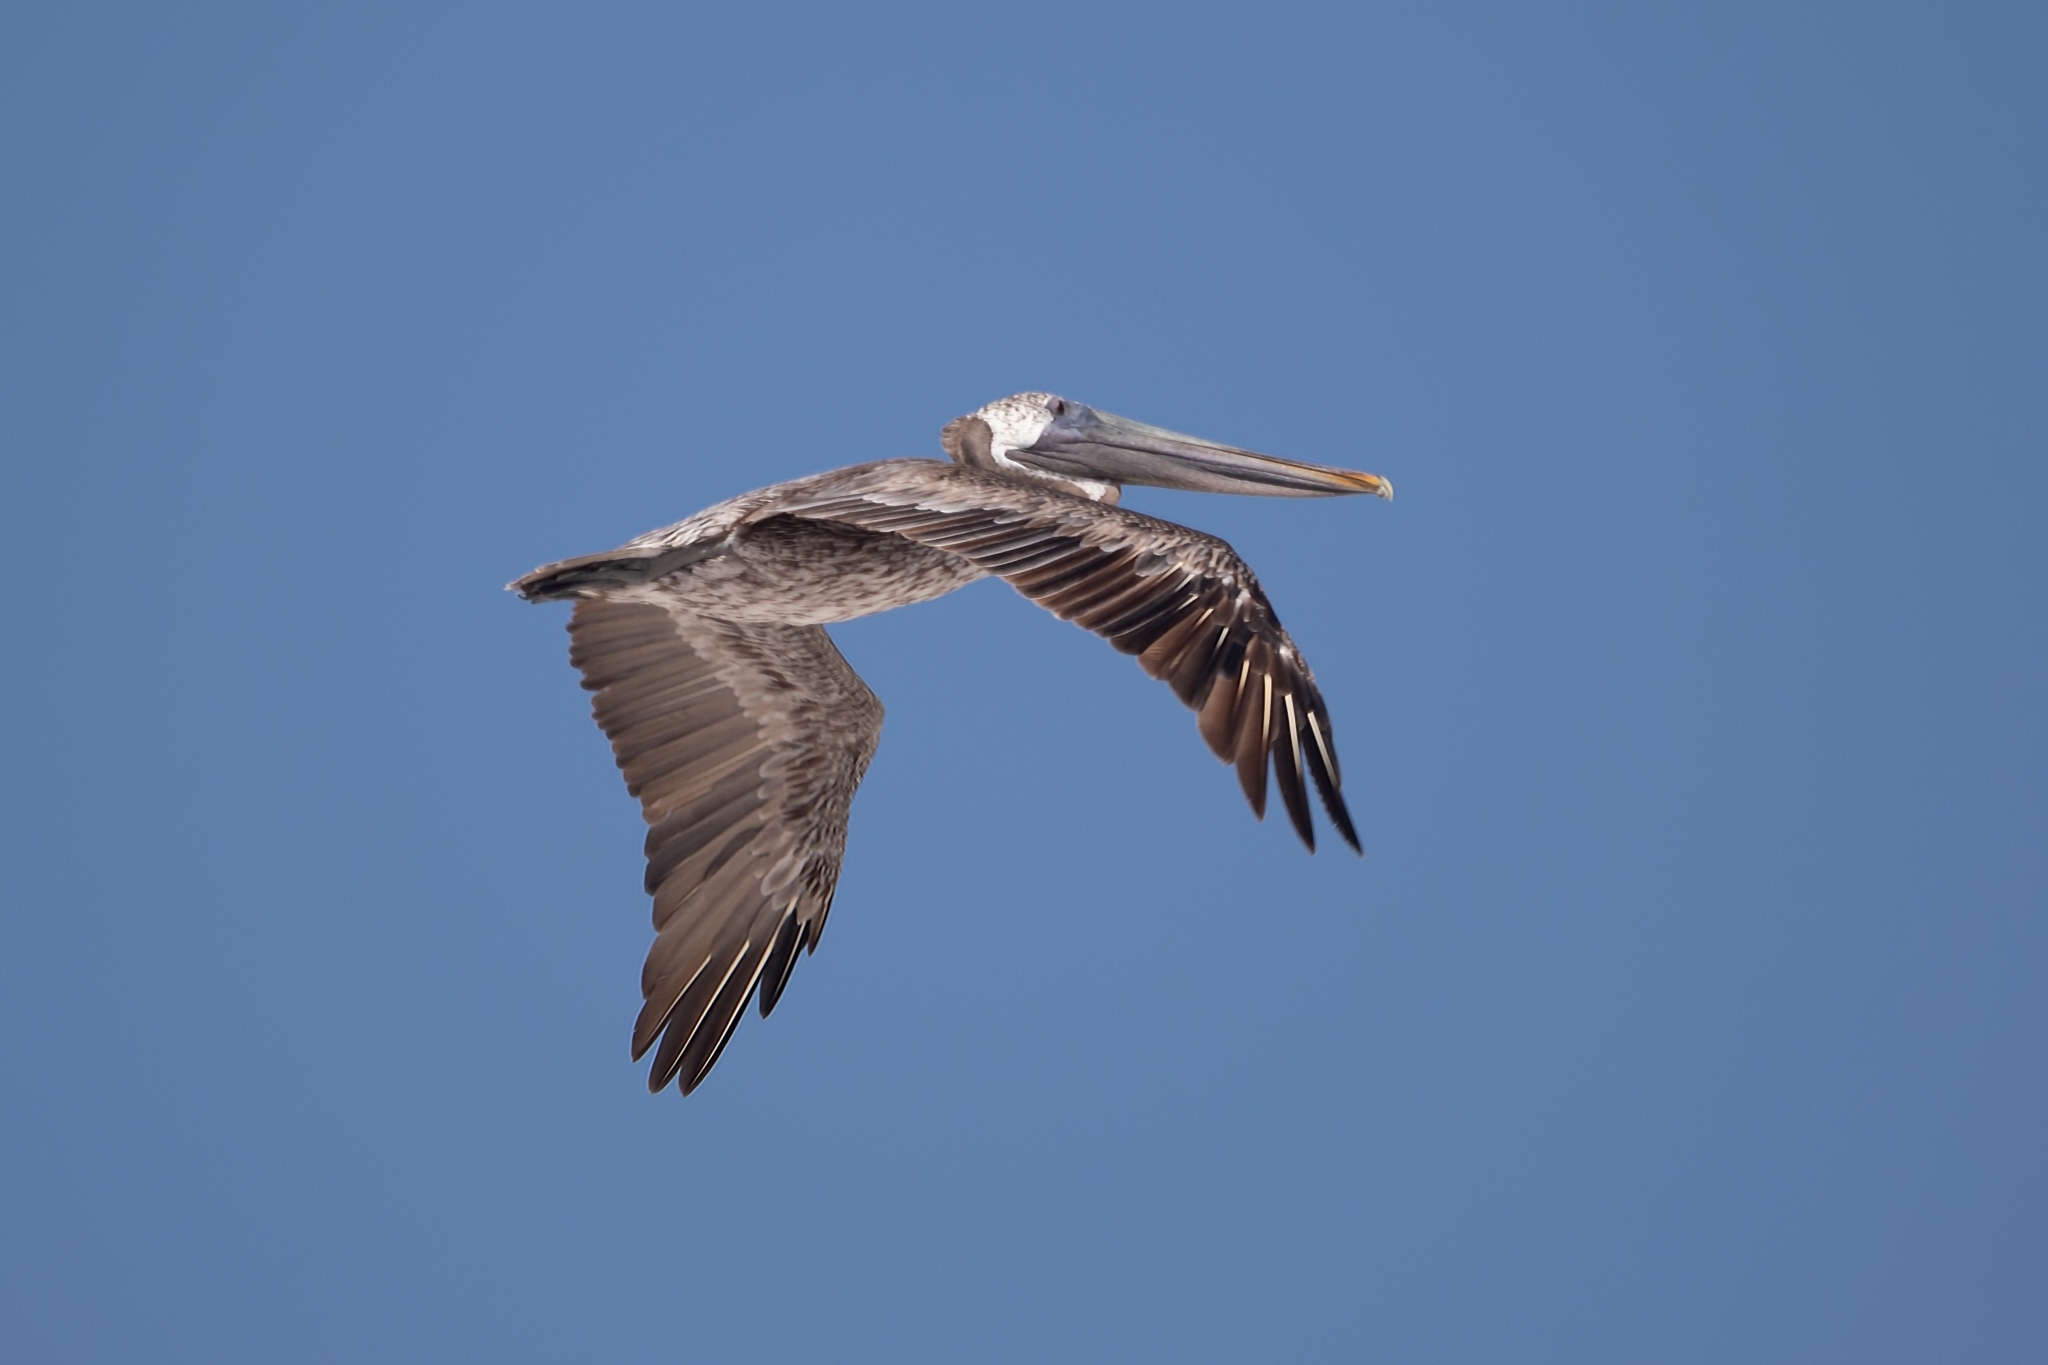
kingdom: Animalia
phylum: Chordata
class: Aves
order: Pelecaniformes
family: Pelecanidae
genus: Pelecanus
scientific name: Pelecanus occidentalis
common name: Brown pelican
